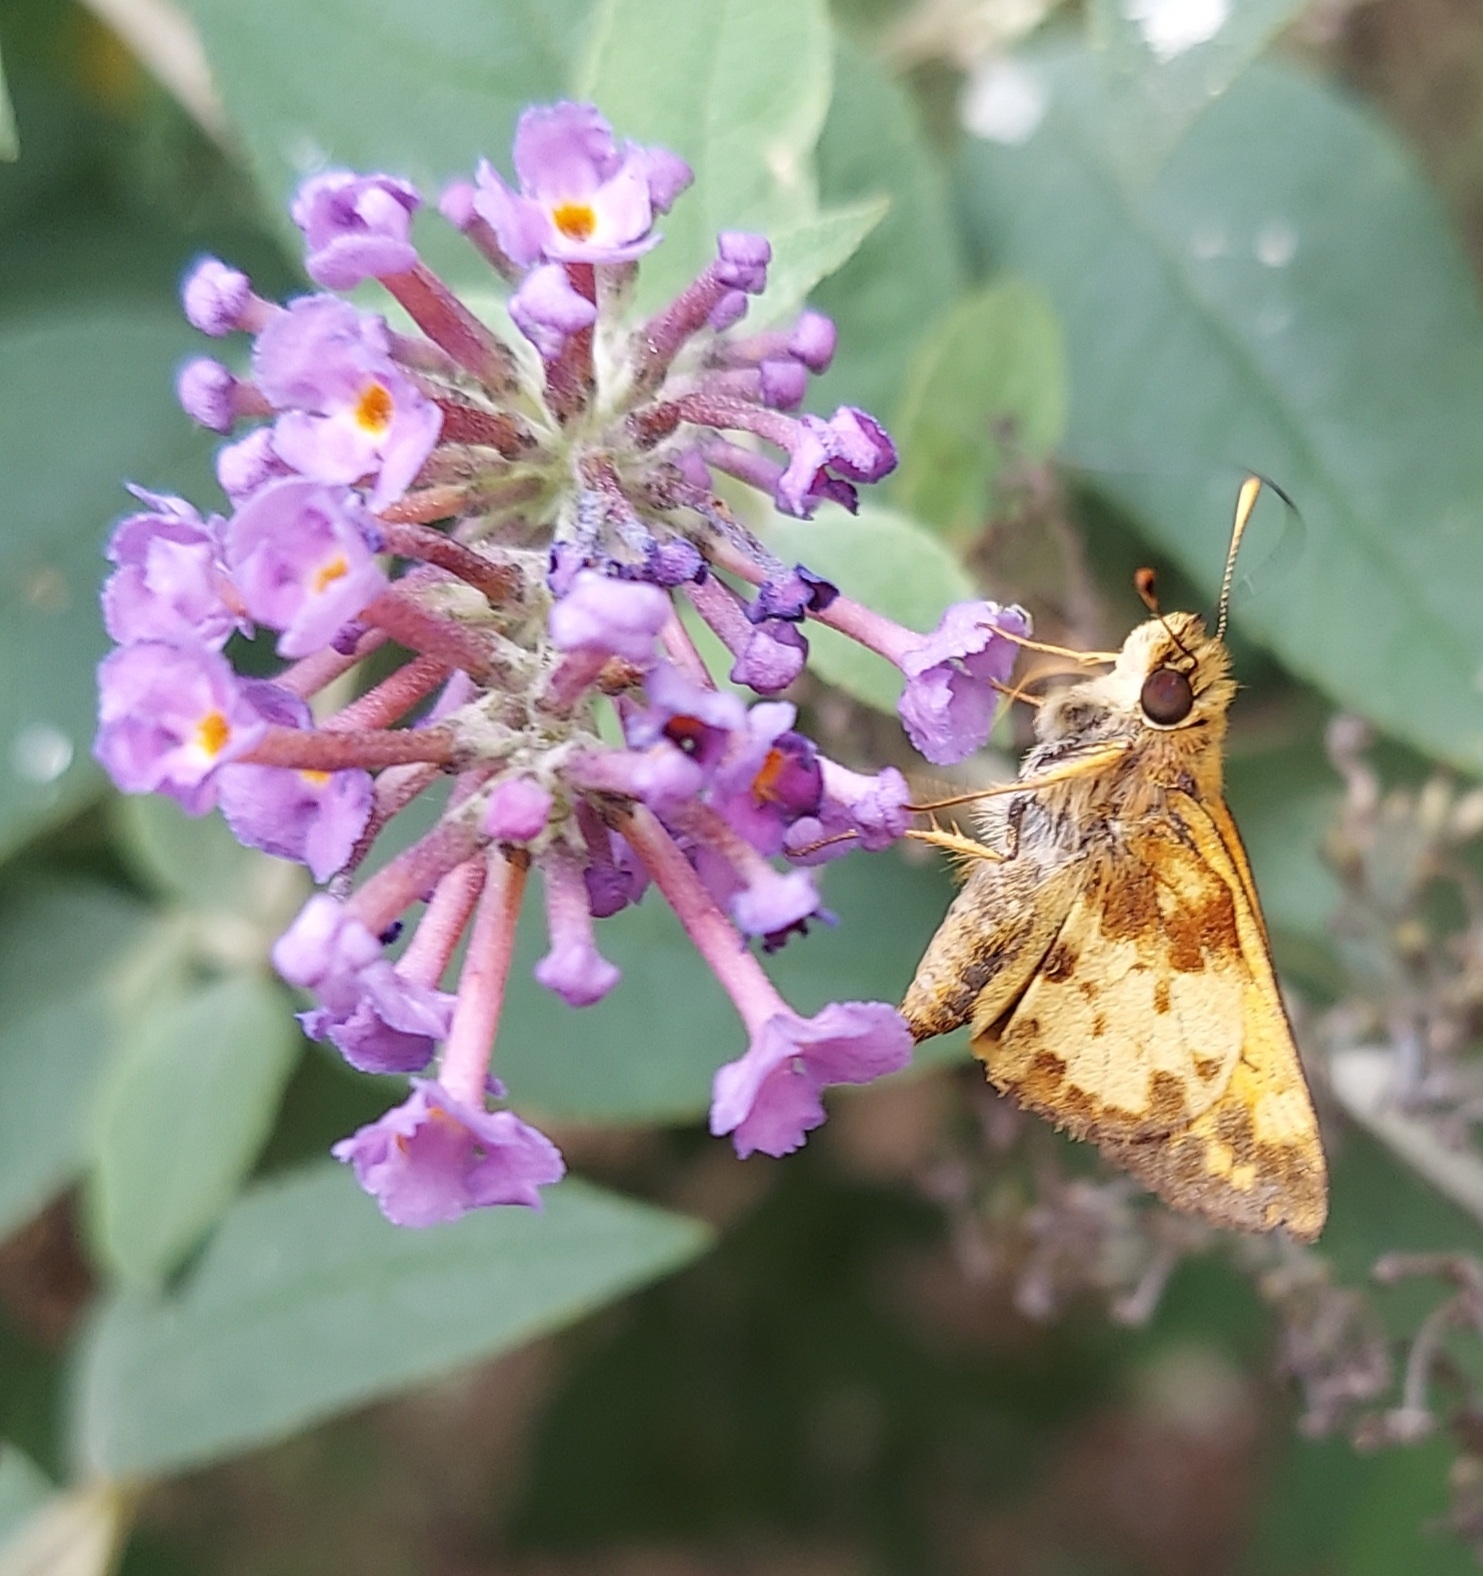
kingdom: Animalia
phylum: Arthropoda
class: Insecta
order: Lepidoptera
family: Hesperiidae
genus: Lon
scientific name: Lon zabulon
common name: Zabulon skipper
